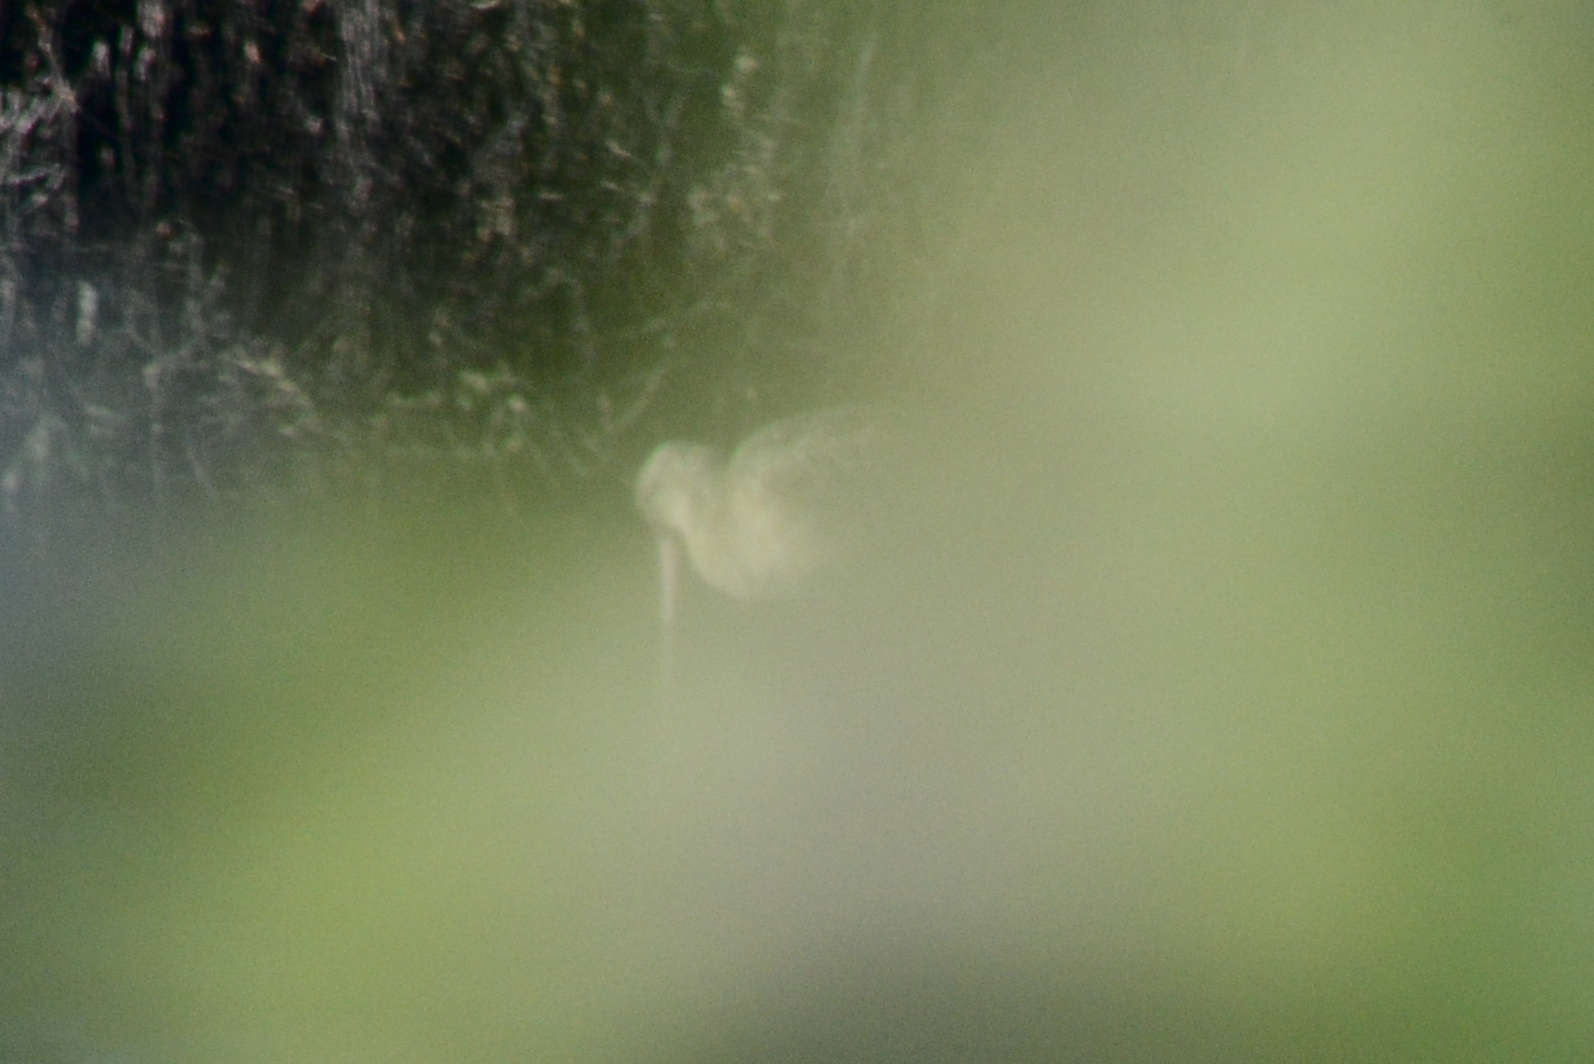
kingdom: Animalia
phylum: Chordata
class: Aves
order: Charadriiformes
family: Scolopacidae
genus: Limosa
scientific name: Limosa fedoa
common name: Marbled godwit
